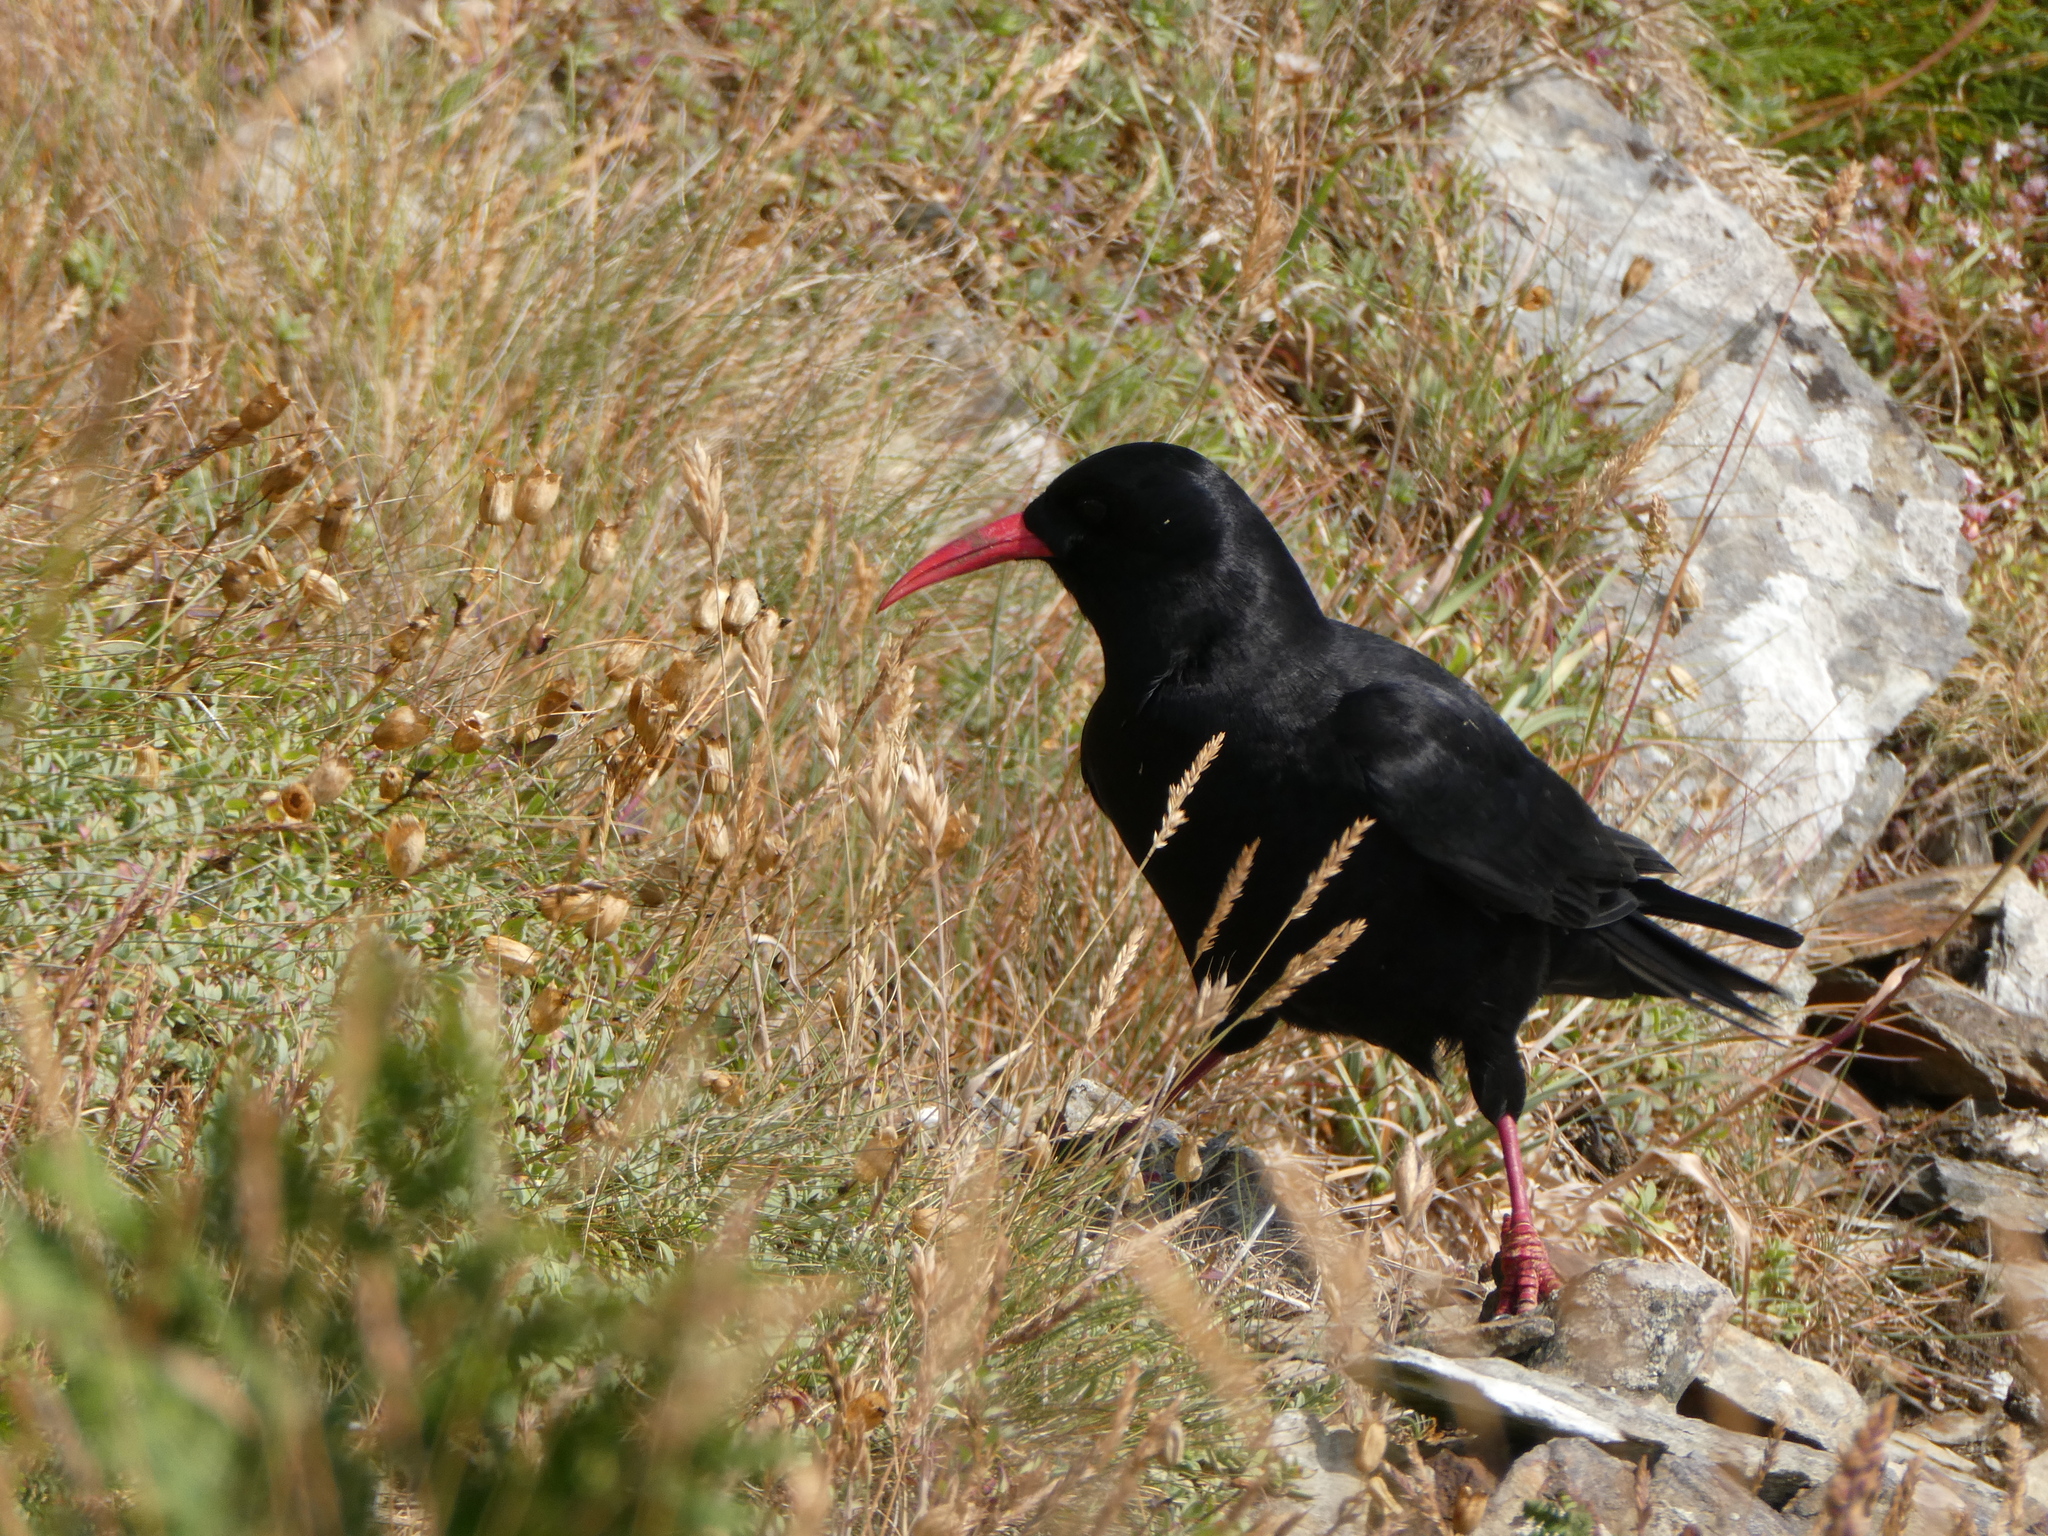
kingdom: Animalia
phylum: Chordata
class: Aves
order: Passeriformes
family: Corvidae
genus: Pyrrhocorax
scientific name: Pyrrhocorax pyrrhocorax
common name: Red-billed chough
